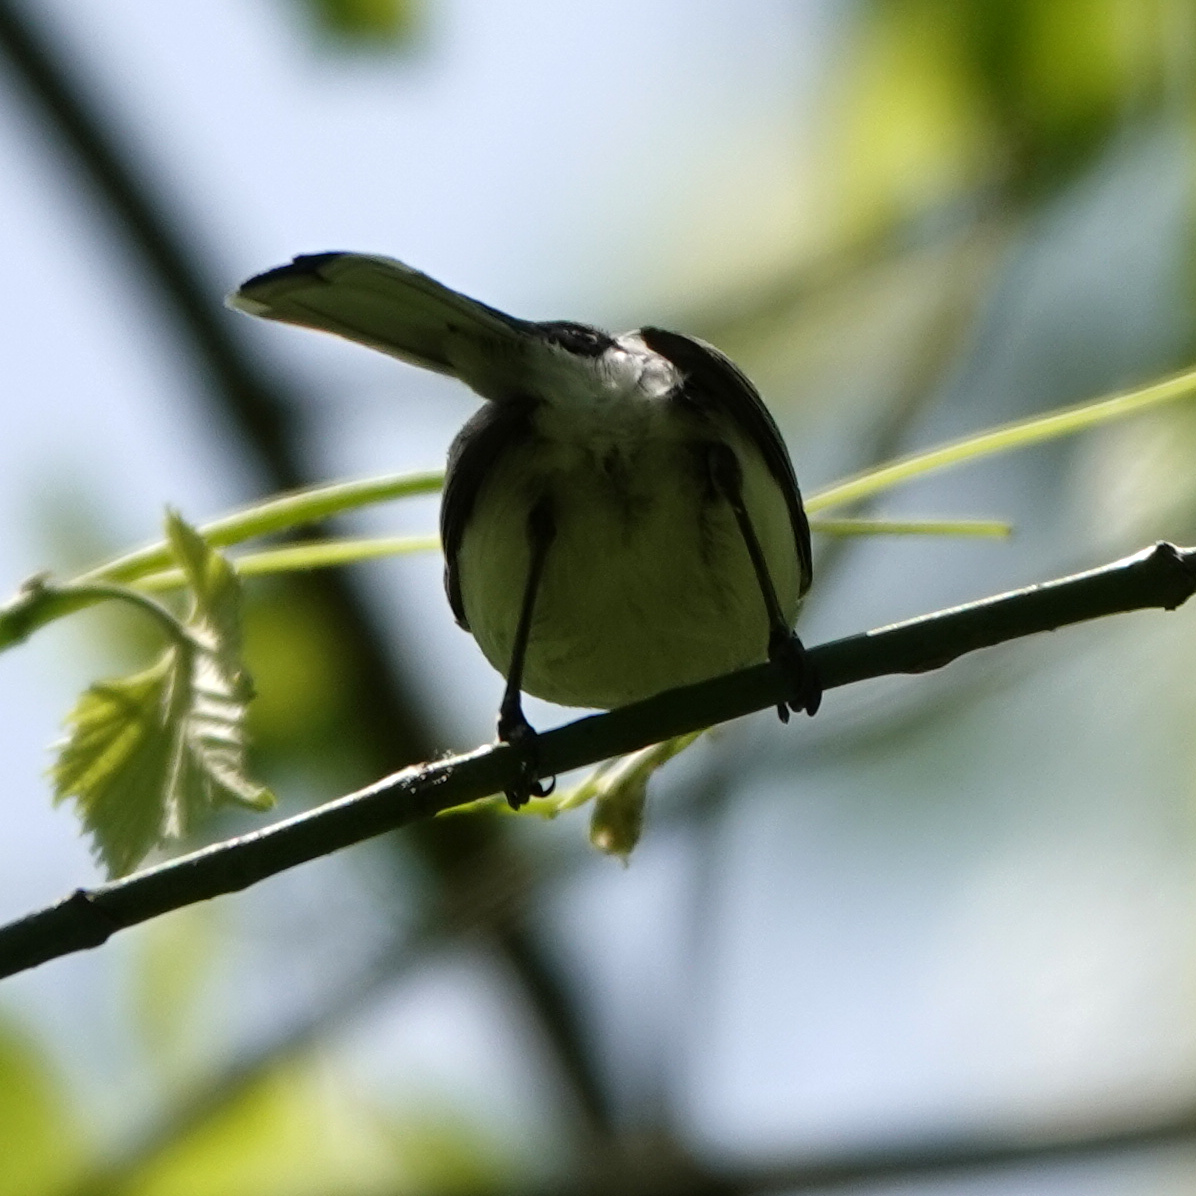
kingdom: Animalia
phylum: Chordata
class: Aves
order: Passeriformes
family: Polioptilidae
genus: Polioptila
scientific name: Polioptila caerulea
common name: Blue-gray gnatcatcher
